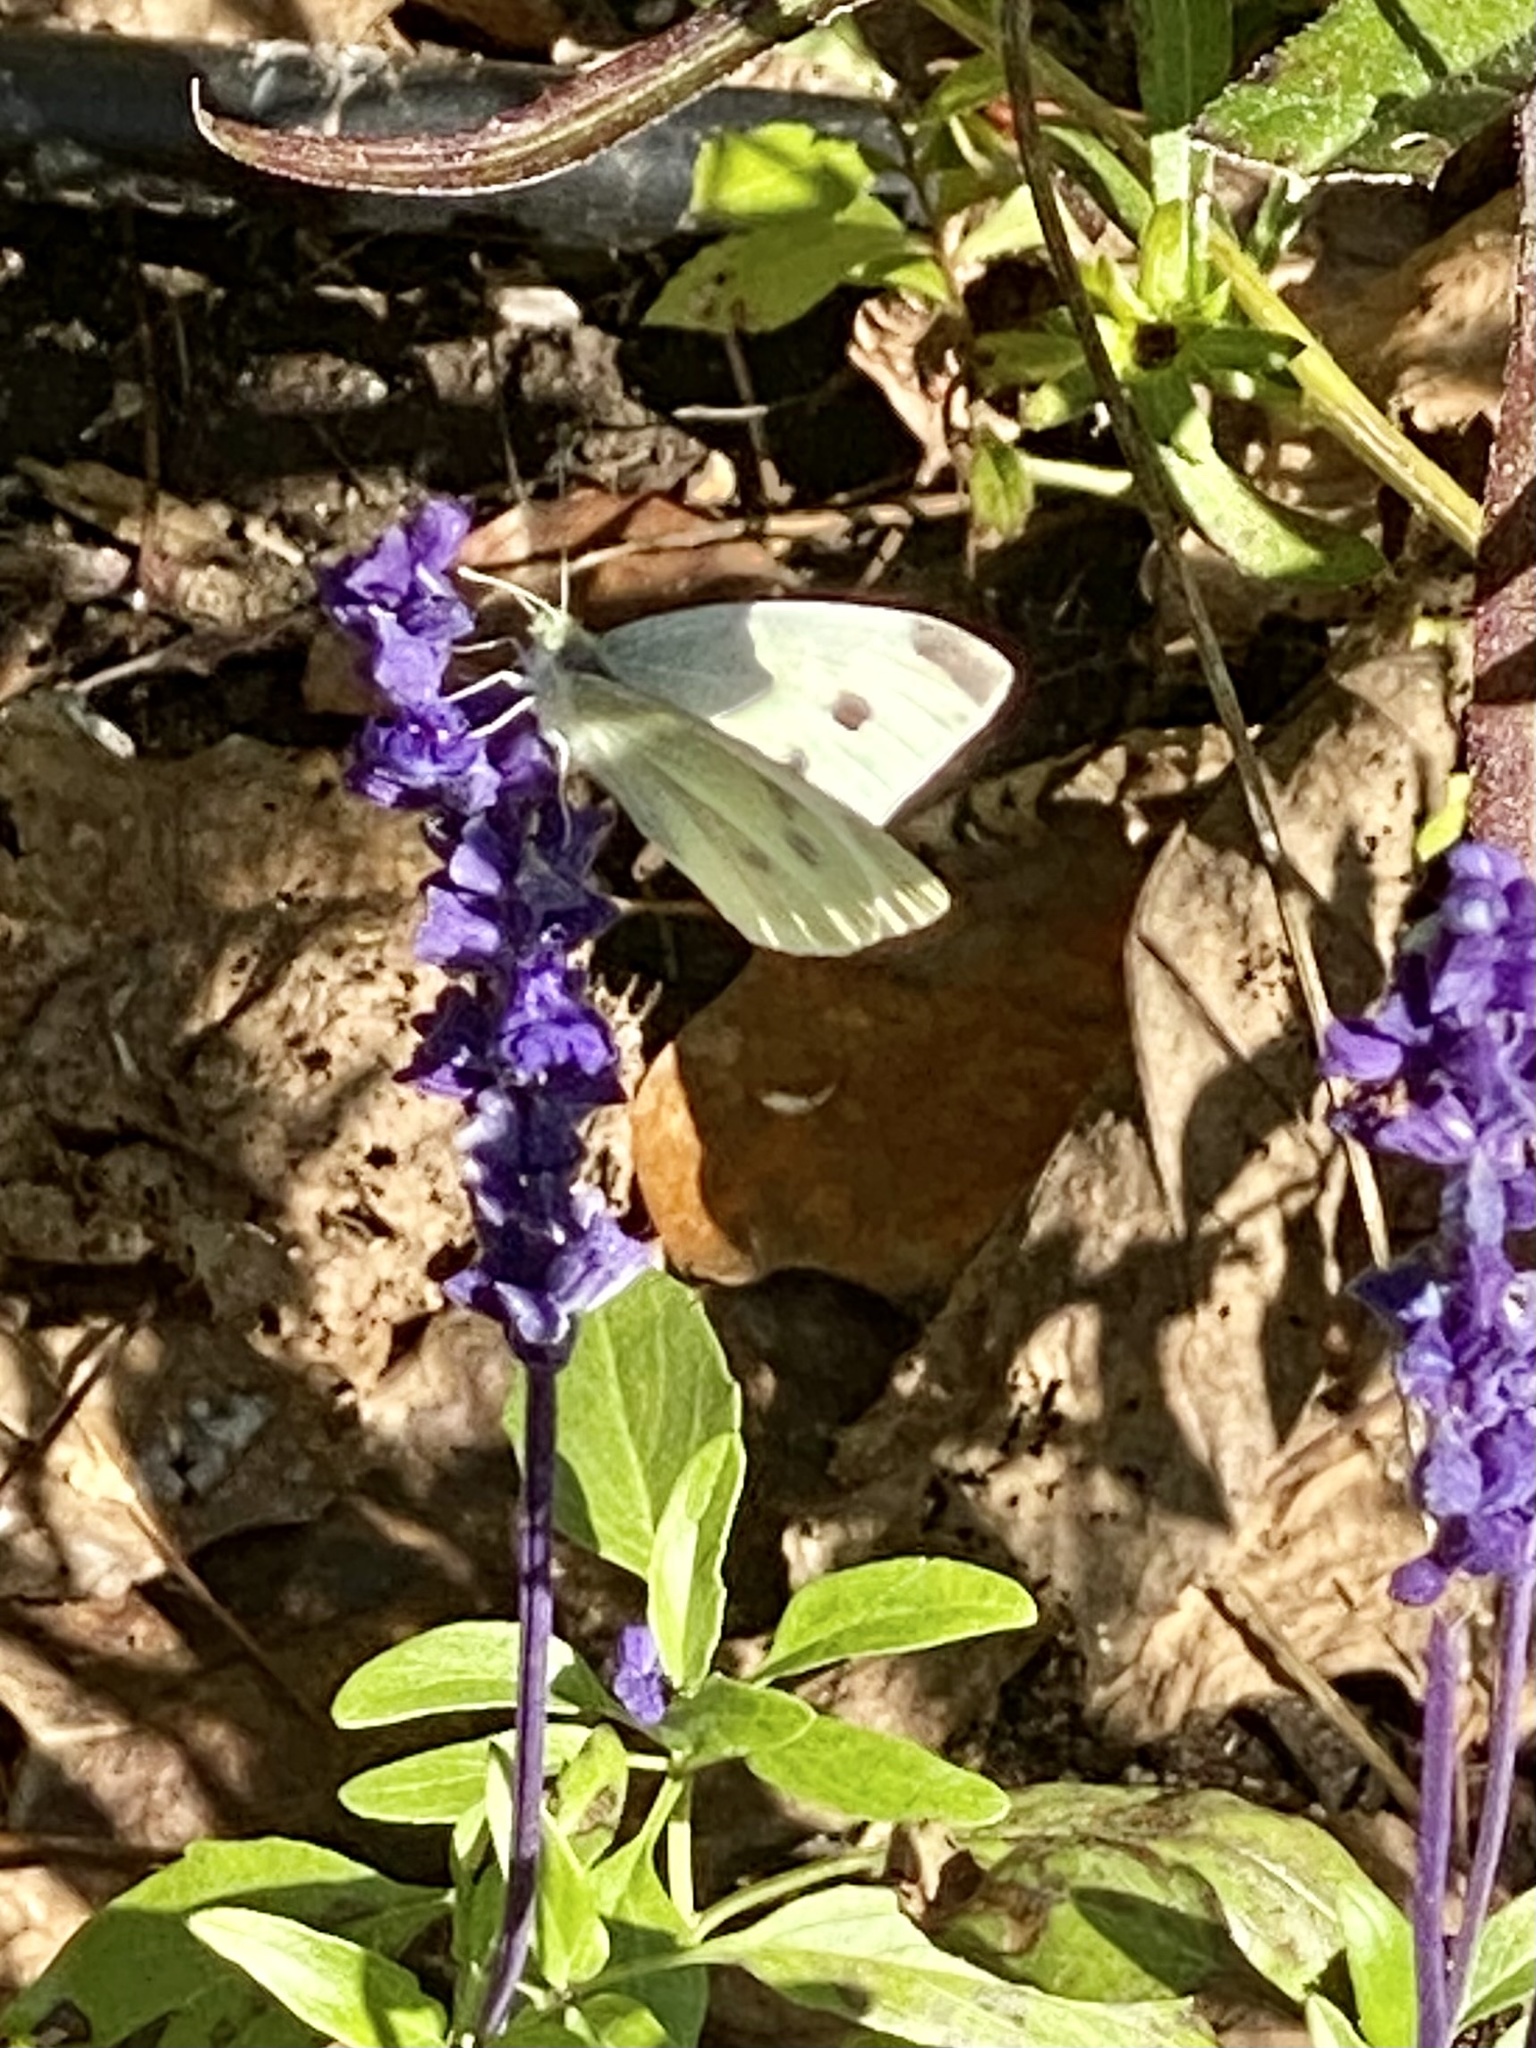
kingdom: Animalia
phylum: Arthropoda
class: Insecta
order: Lepidoptera
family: Pieridae
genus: Pieris
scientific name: Pieris rapae
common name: Small white
